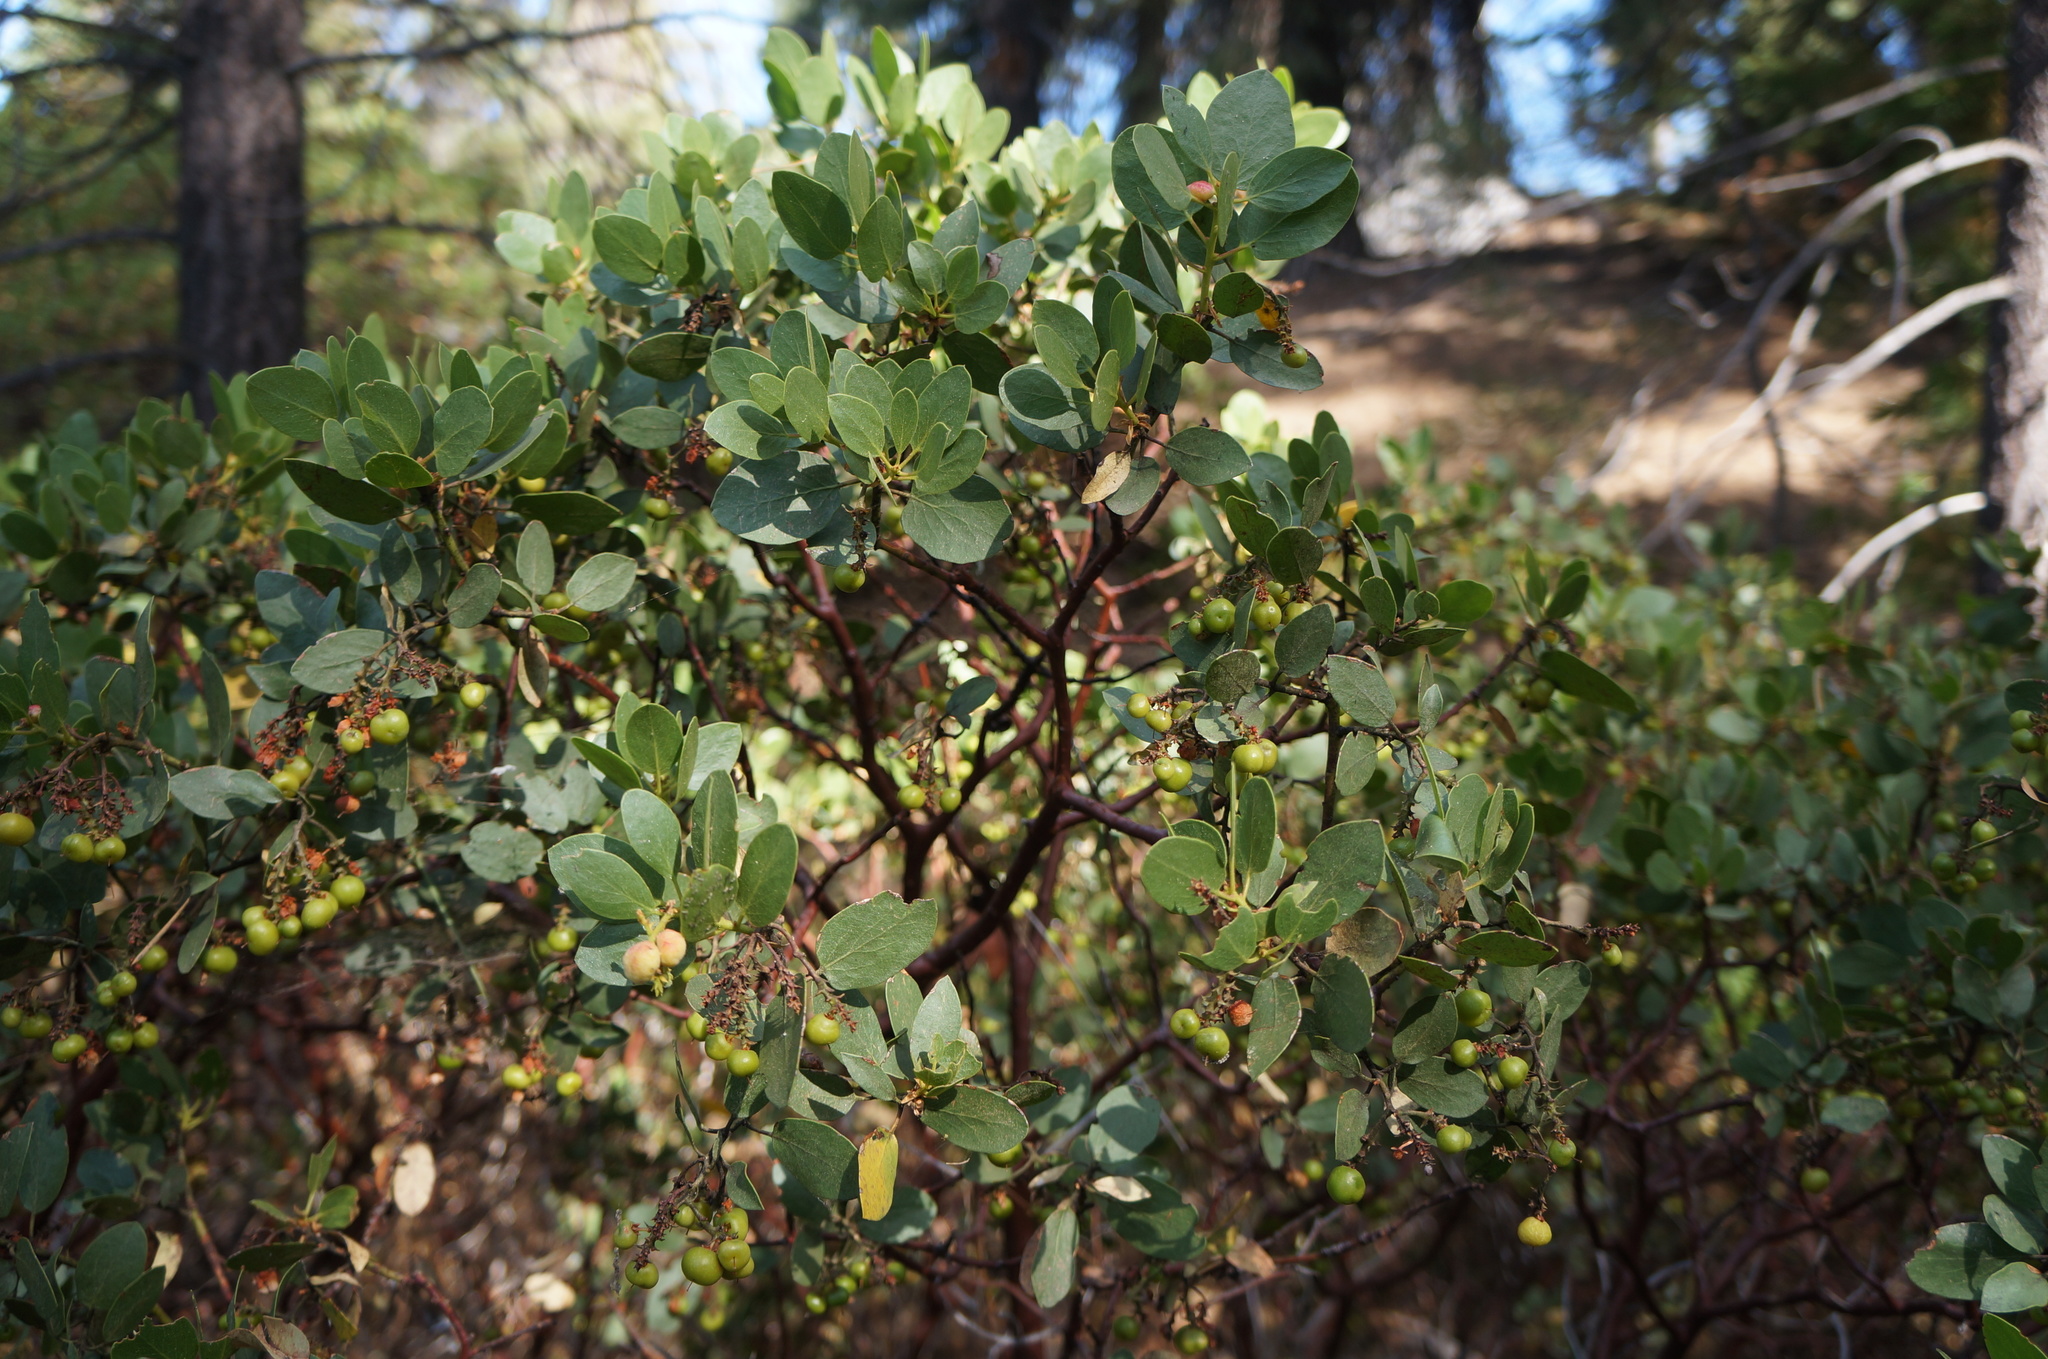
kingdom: Plantae
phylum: Tracheophyta
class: Magnoliopsida
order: Ericales
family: Ericaceae
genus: Arctostaphylos
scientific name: Arctostaphylos patula
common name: Green-leaf manzanita
